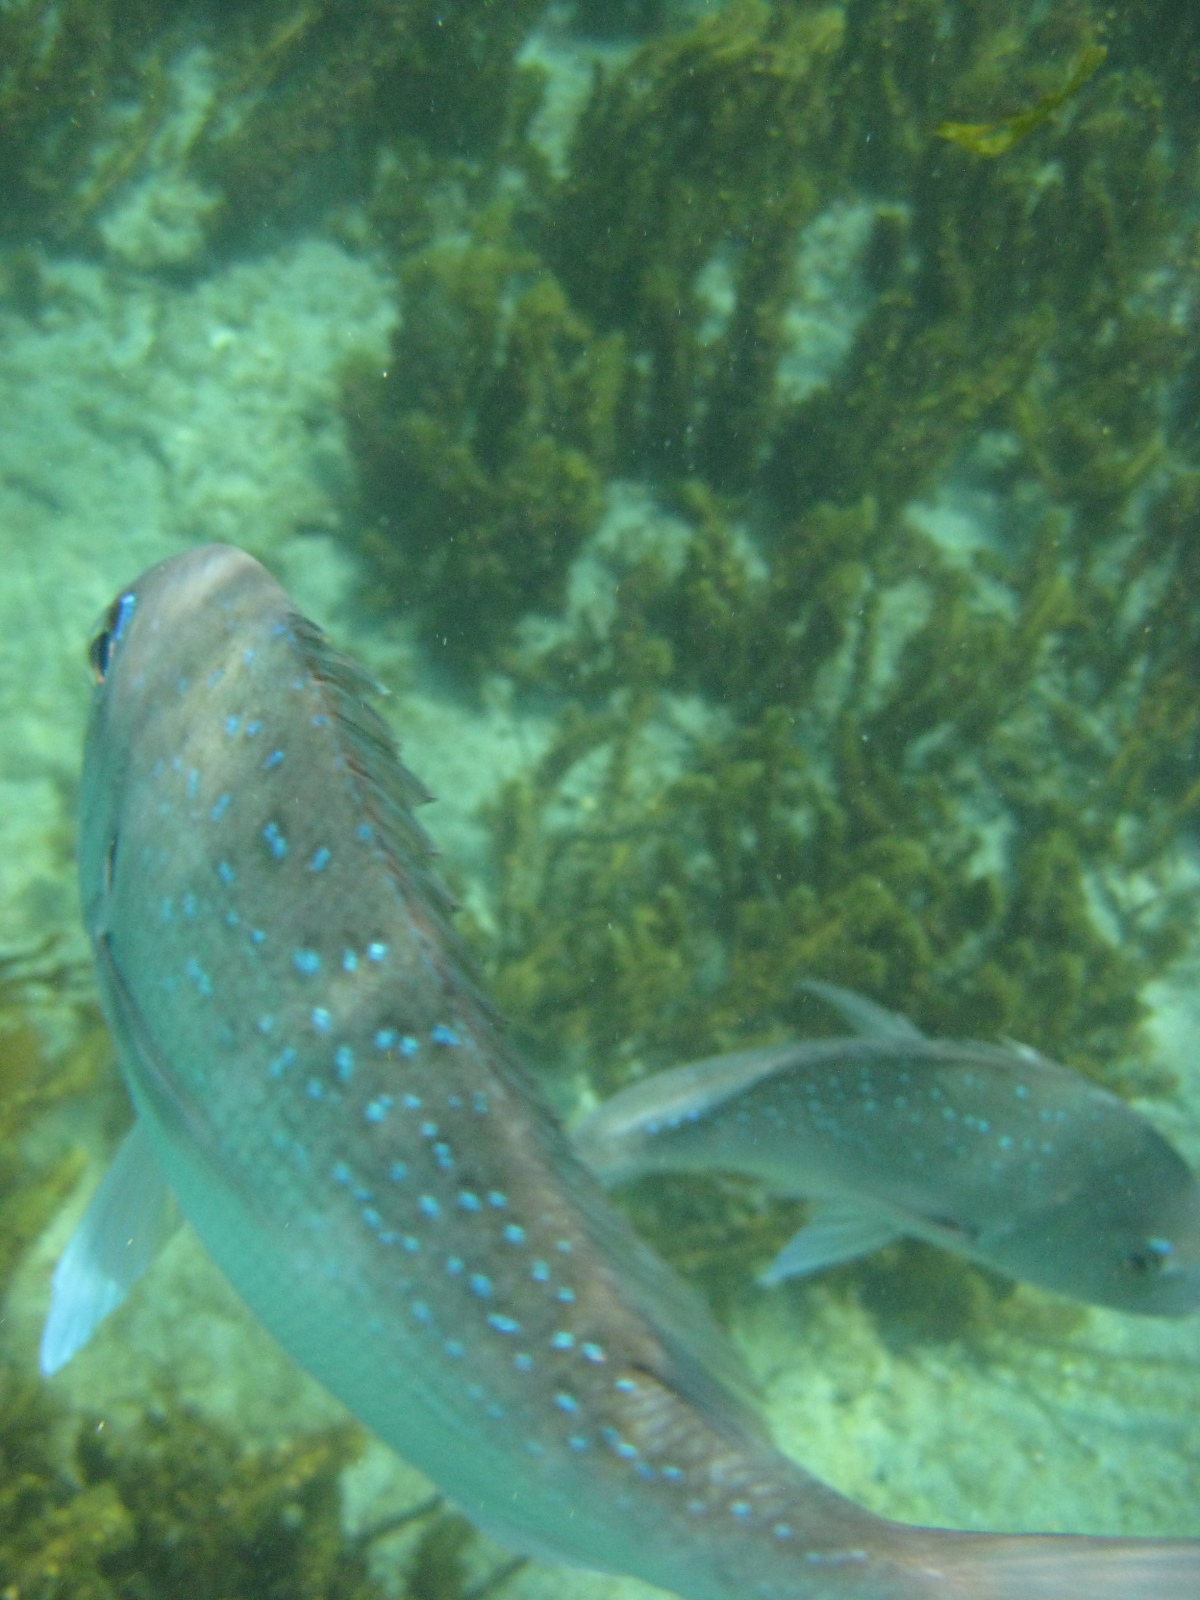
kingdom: Animalia
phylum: Chordata
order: Perciformes
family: Sparidae
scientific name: Sparidae
